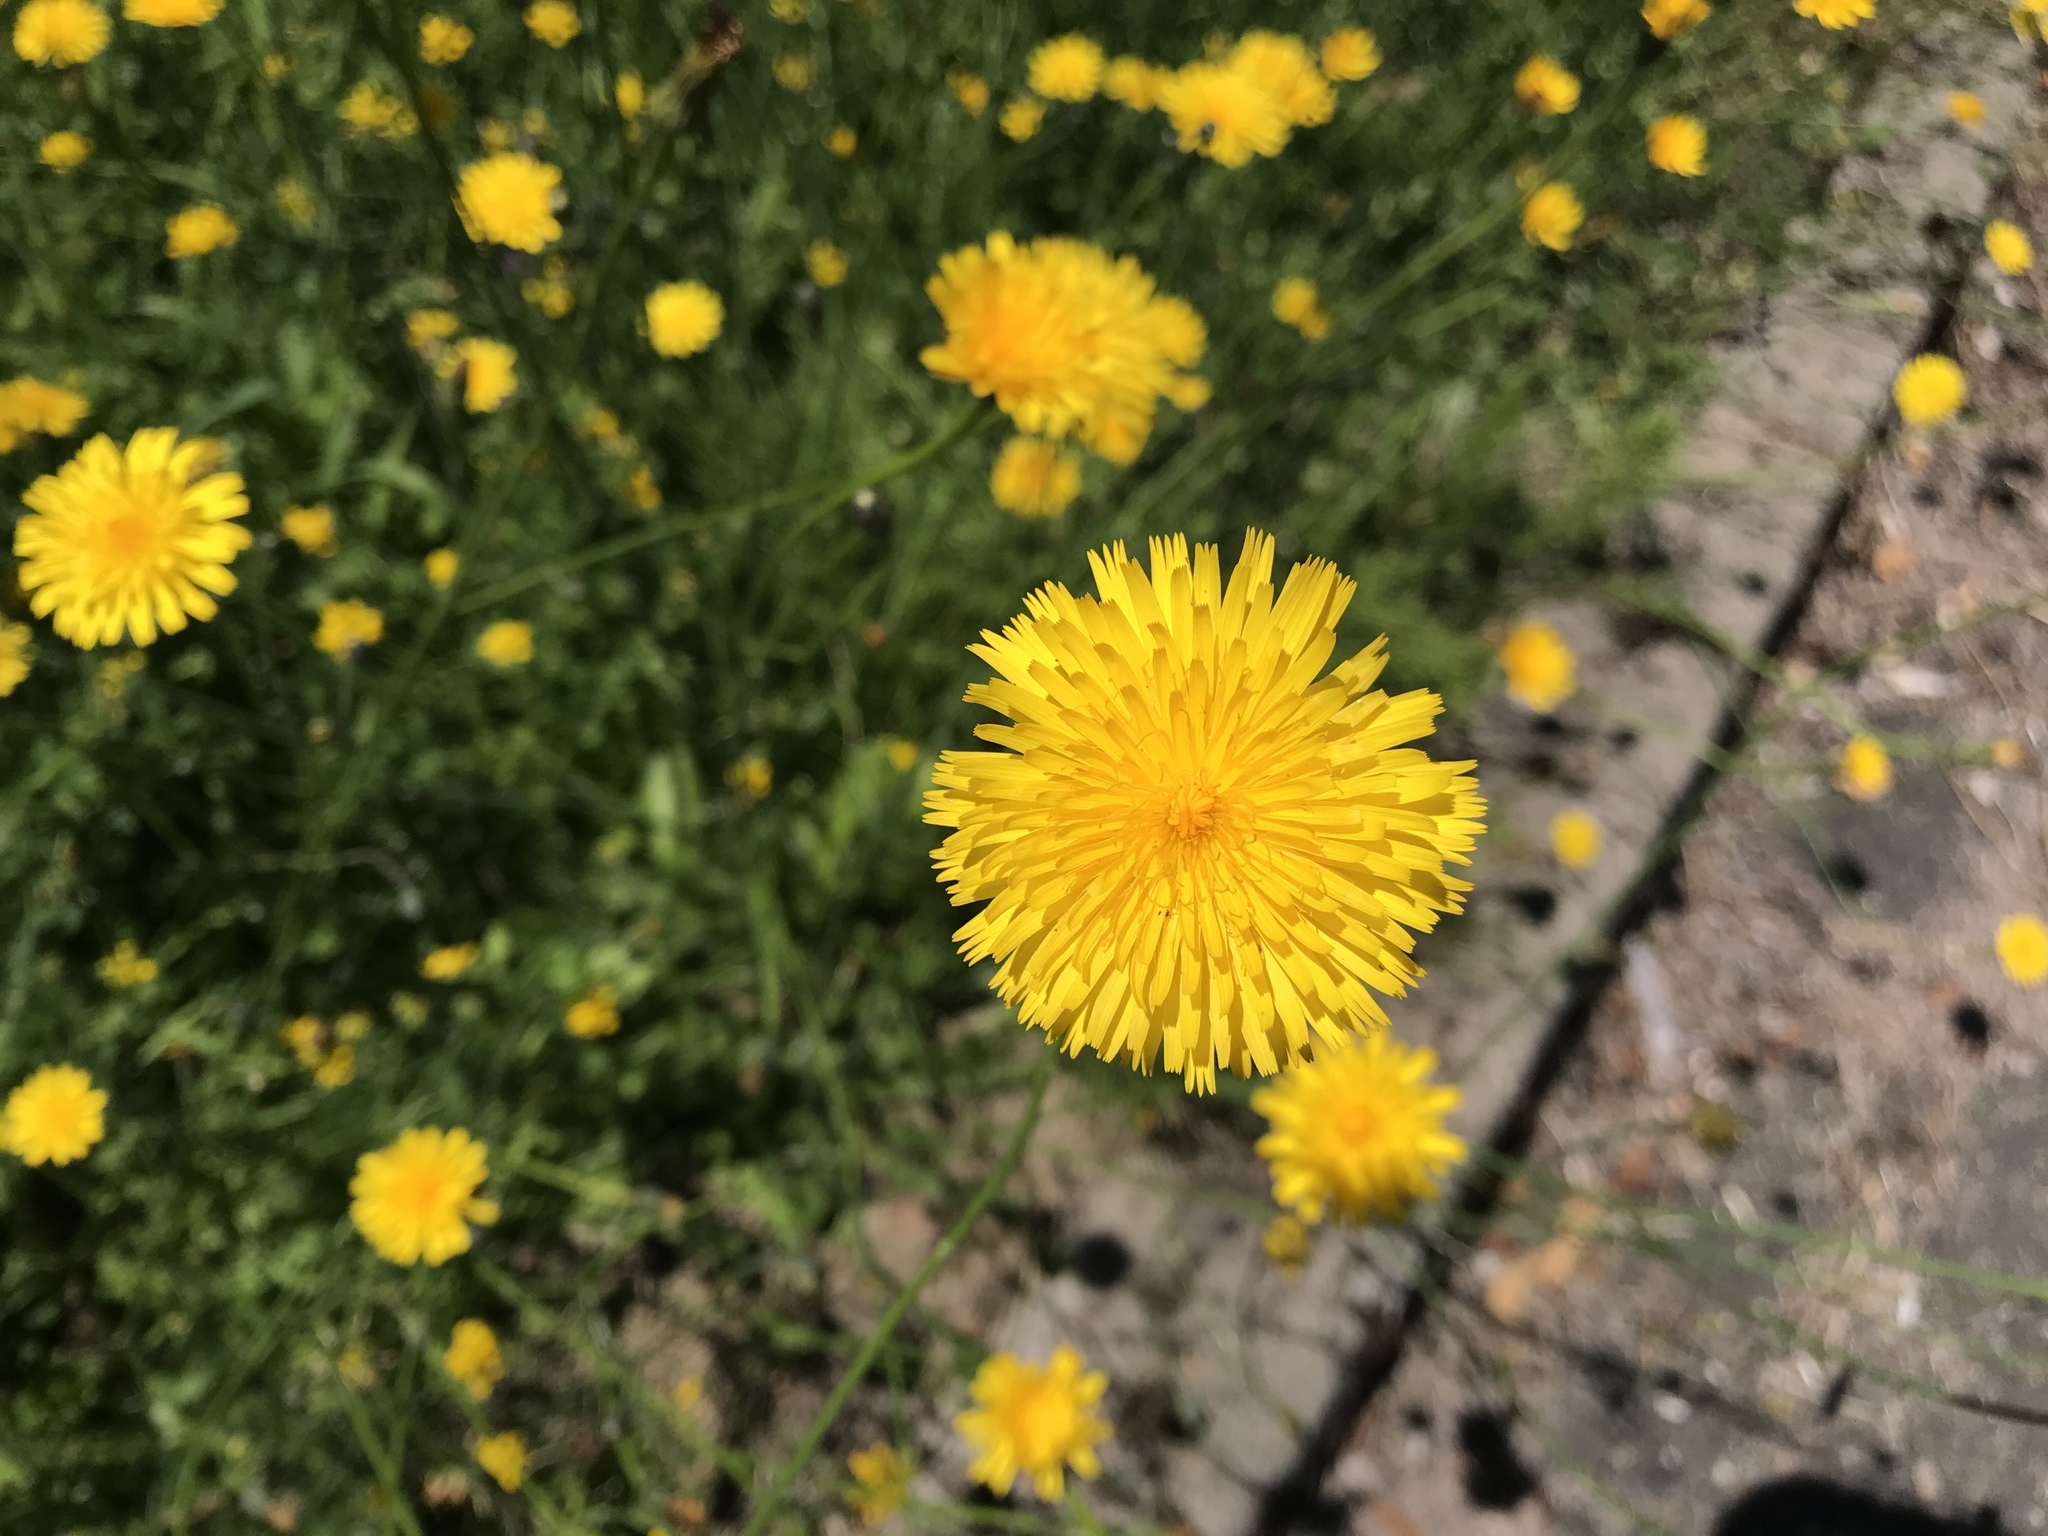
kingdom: Plantae
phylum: Tracheophyta
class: Magnoliopsida
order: Asterales
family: Asteraceae
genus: Taraxacum
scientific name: Taraxacum officinale
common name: Common dandelion
